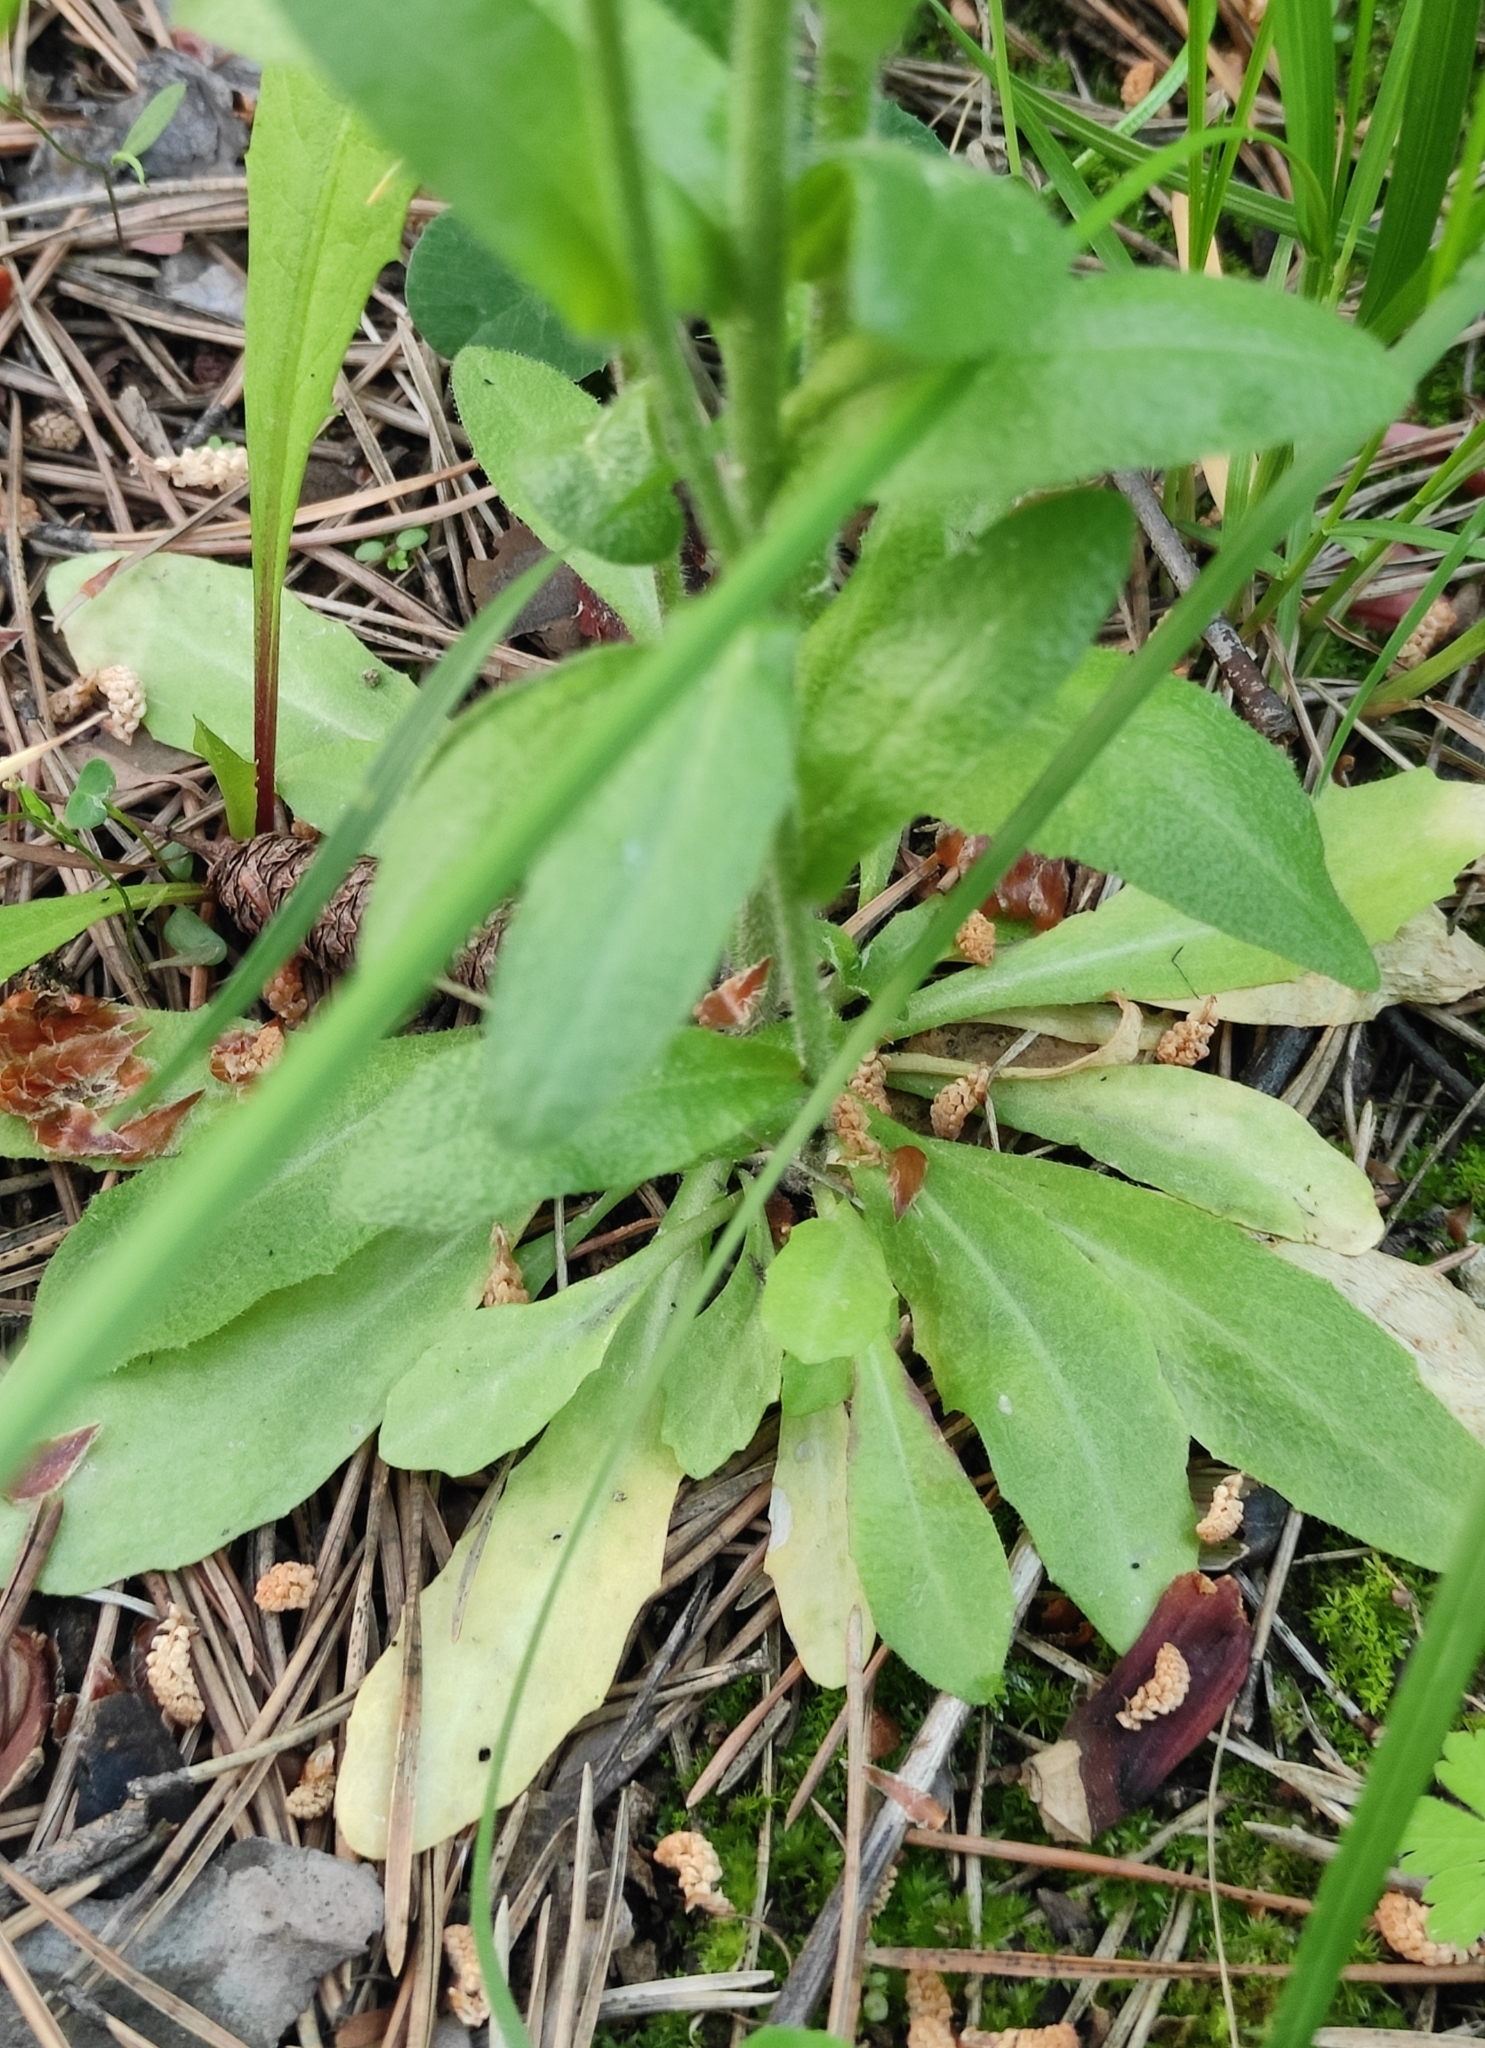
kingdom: Plantae
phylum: Tracheophyta
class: Magnoliopsida
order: Brassicales
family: Brassicaceae
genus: Arabis
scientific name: Arabis borealis
